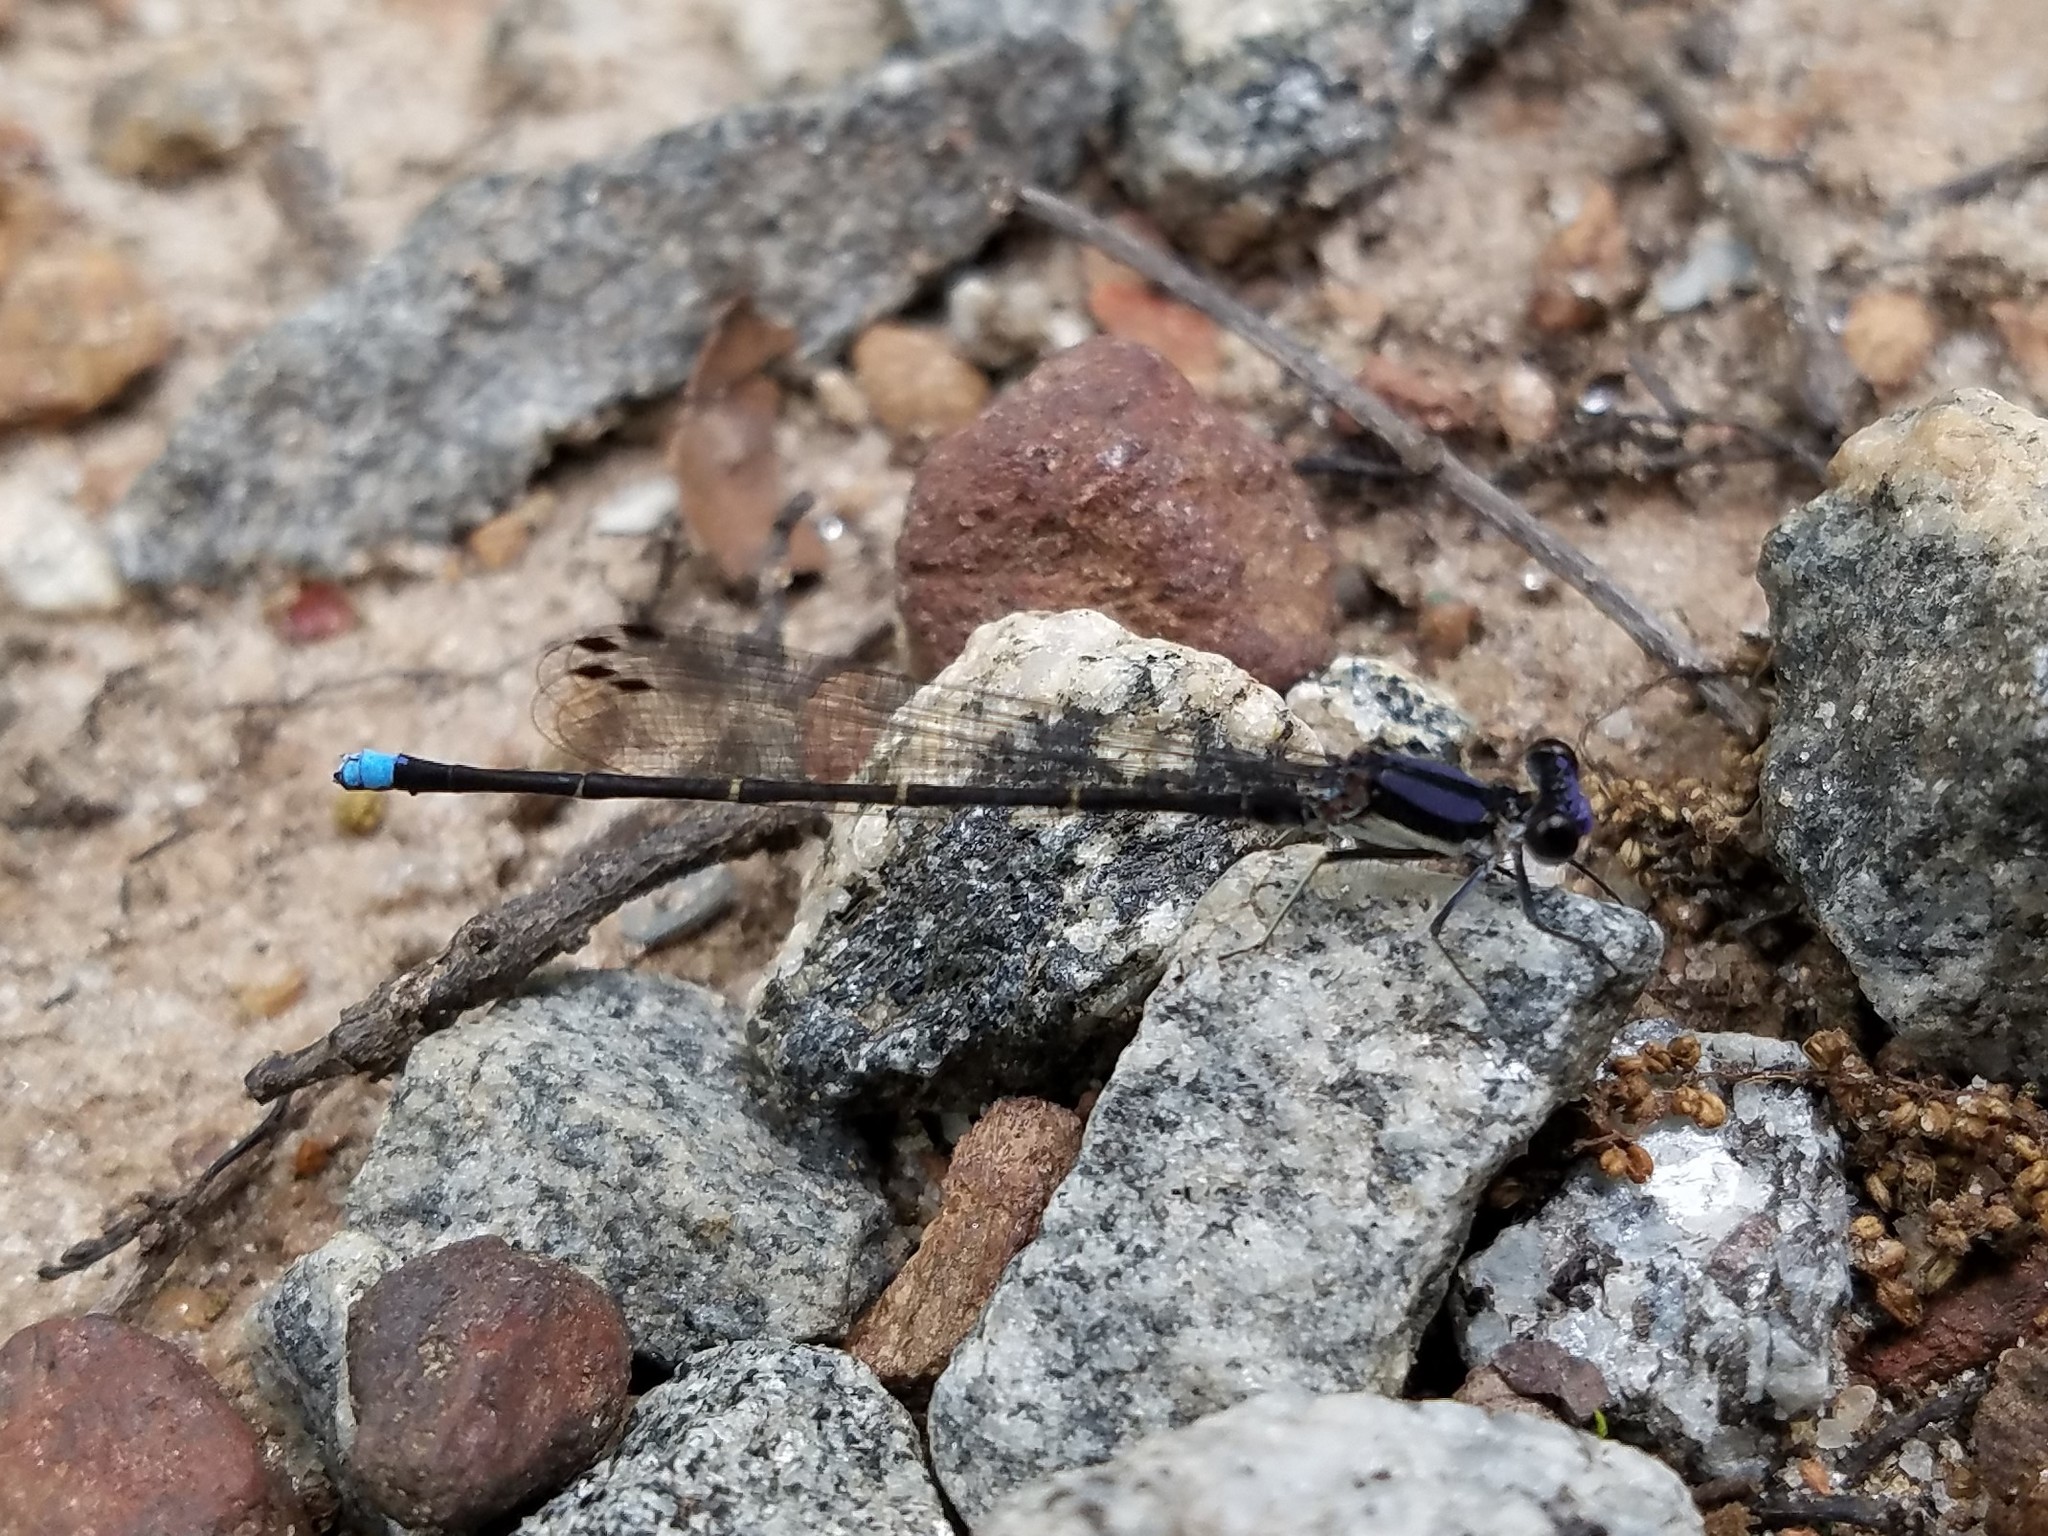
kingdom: Animalia
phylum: Arthropoda
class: Insecta
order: Odonata
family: Coenagrionidae
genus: Argia
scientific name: Argia tibialis
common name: Blue-tipped dancer
